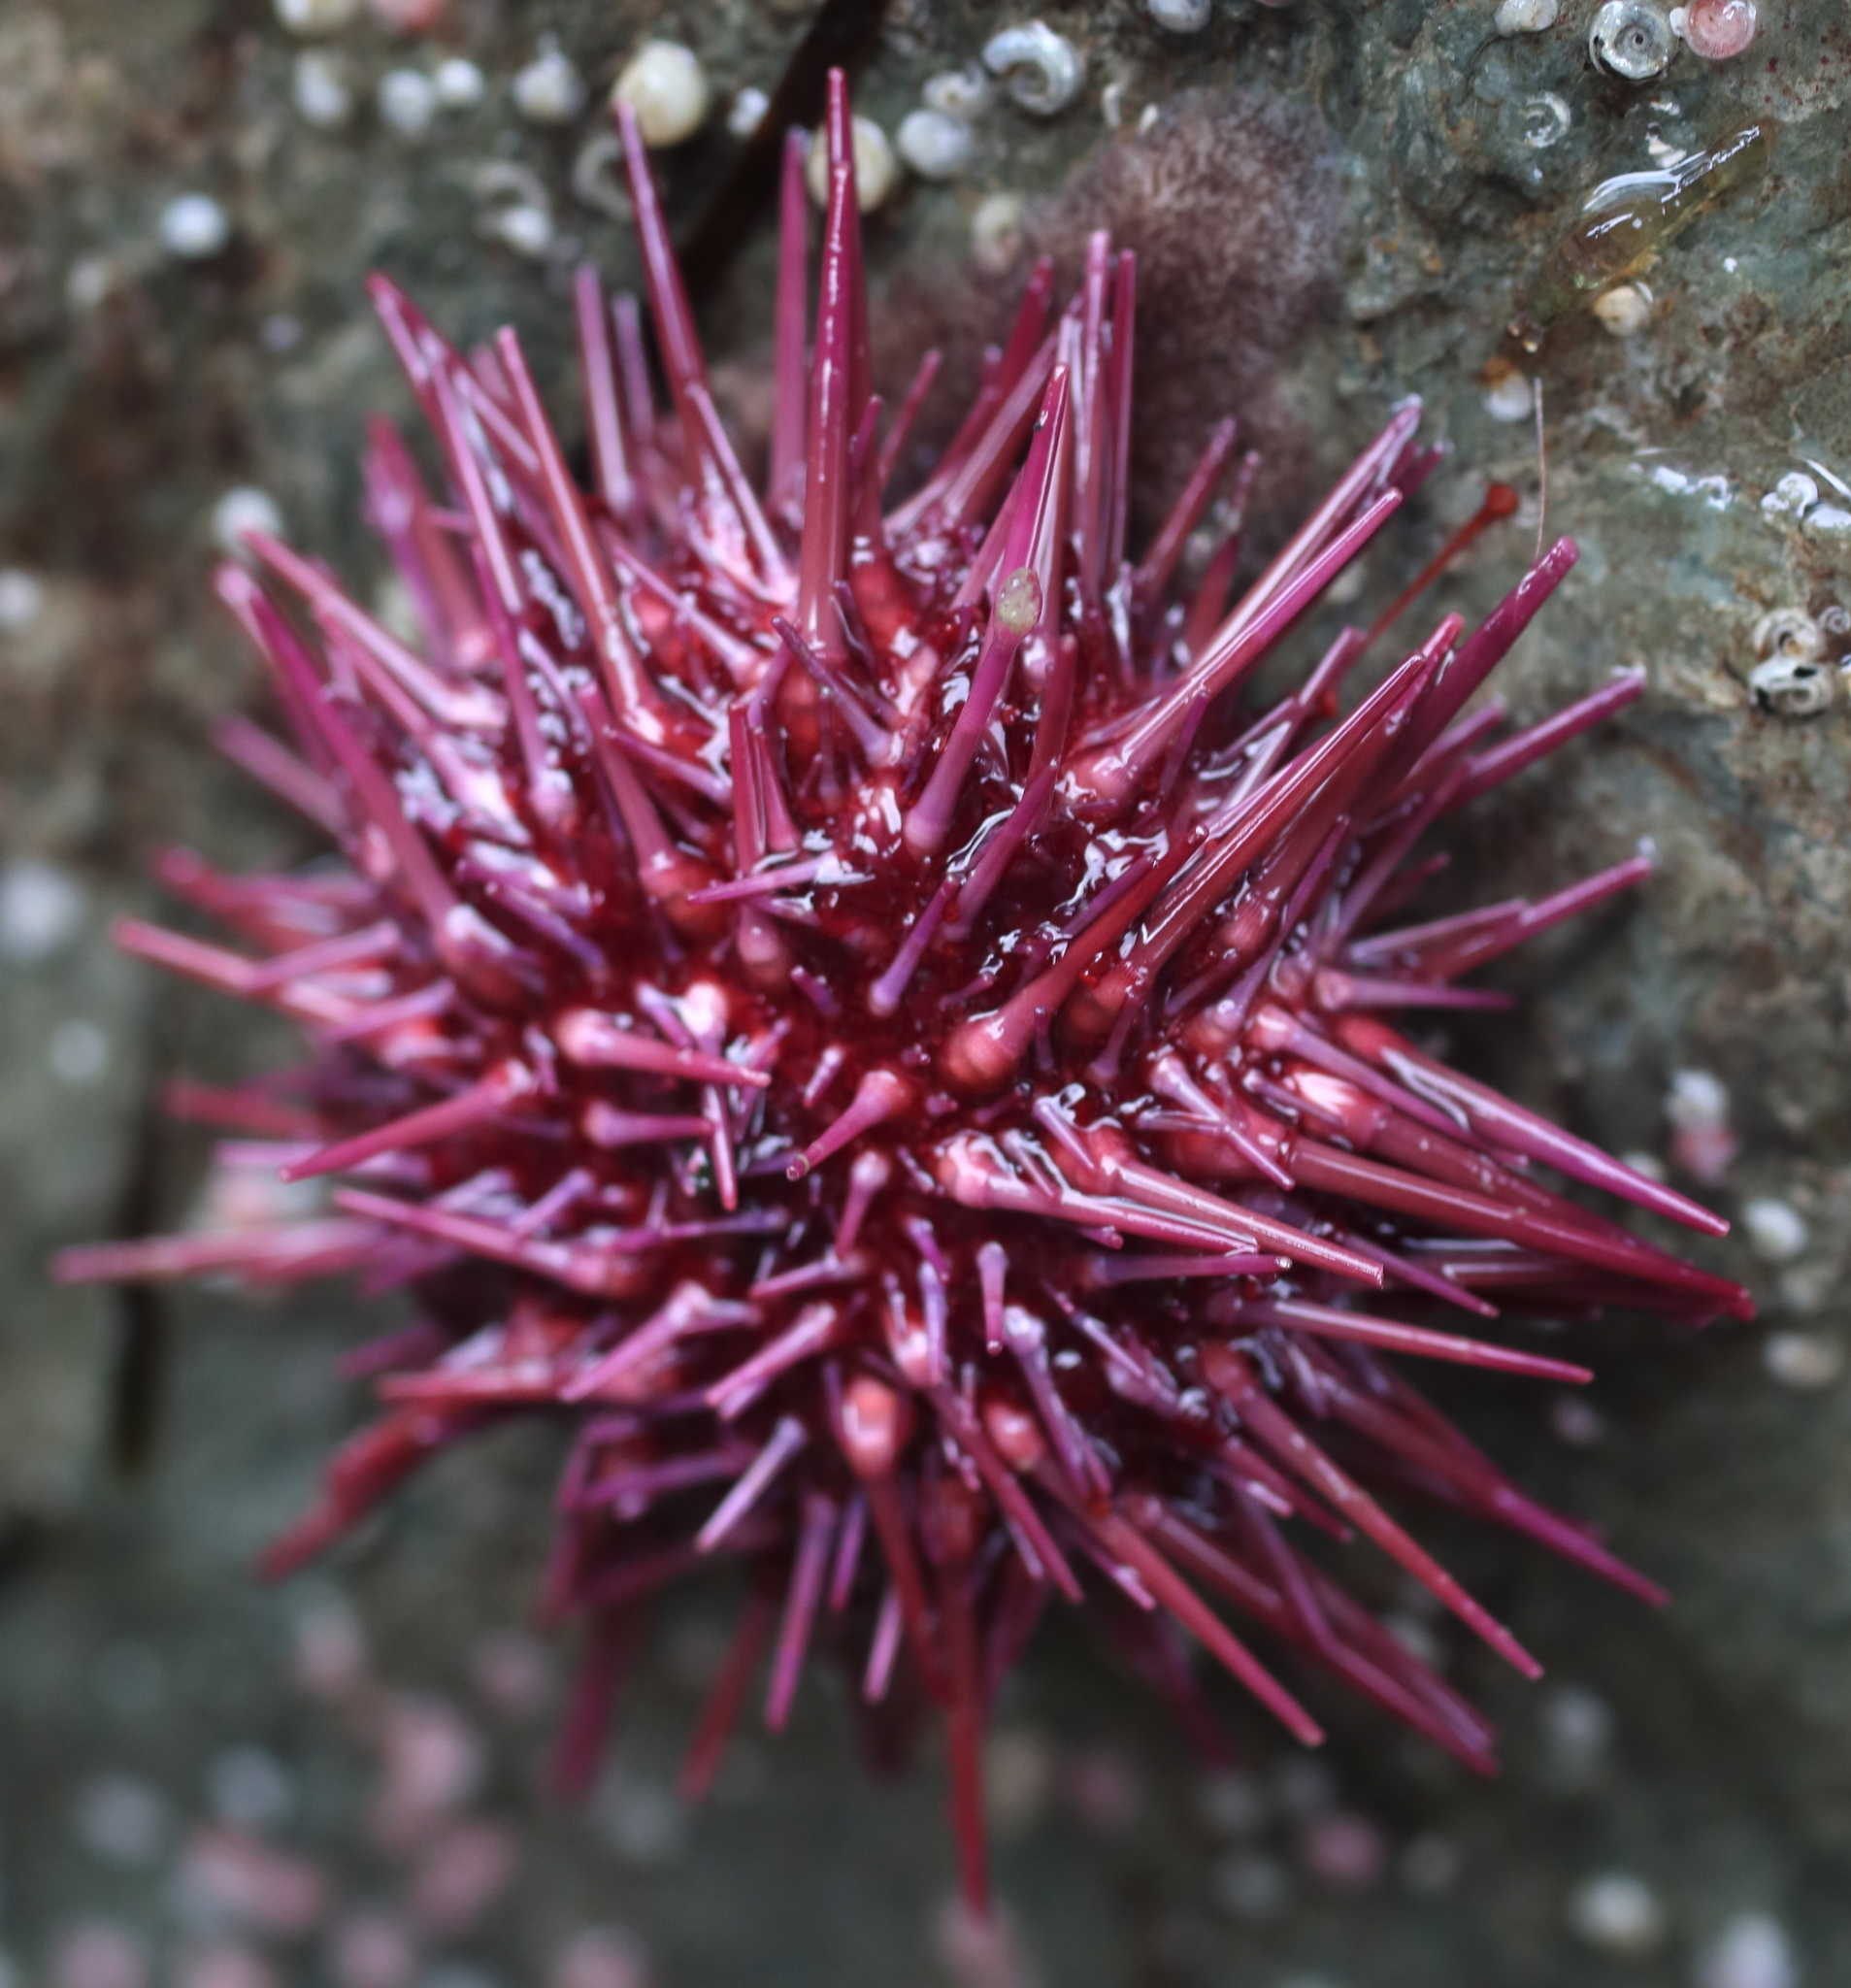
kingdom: Animalia
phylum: Echinodermata
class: Echinoidea
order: Camarodonta
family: Strongylocentrotidae
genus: Mesocentrotus
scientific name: Mesocentrotus franciscanus
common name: Red sea urchin
